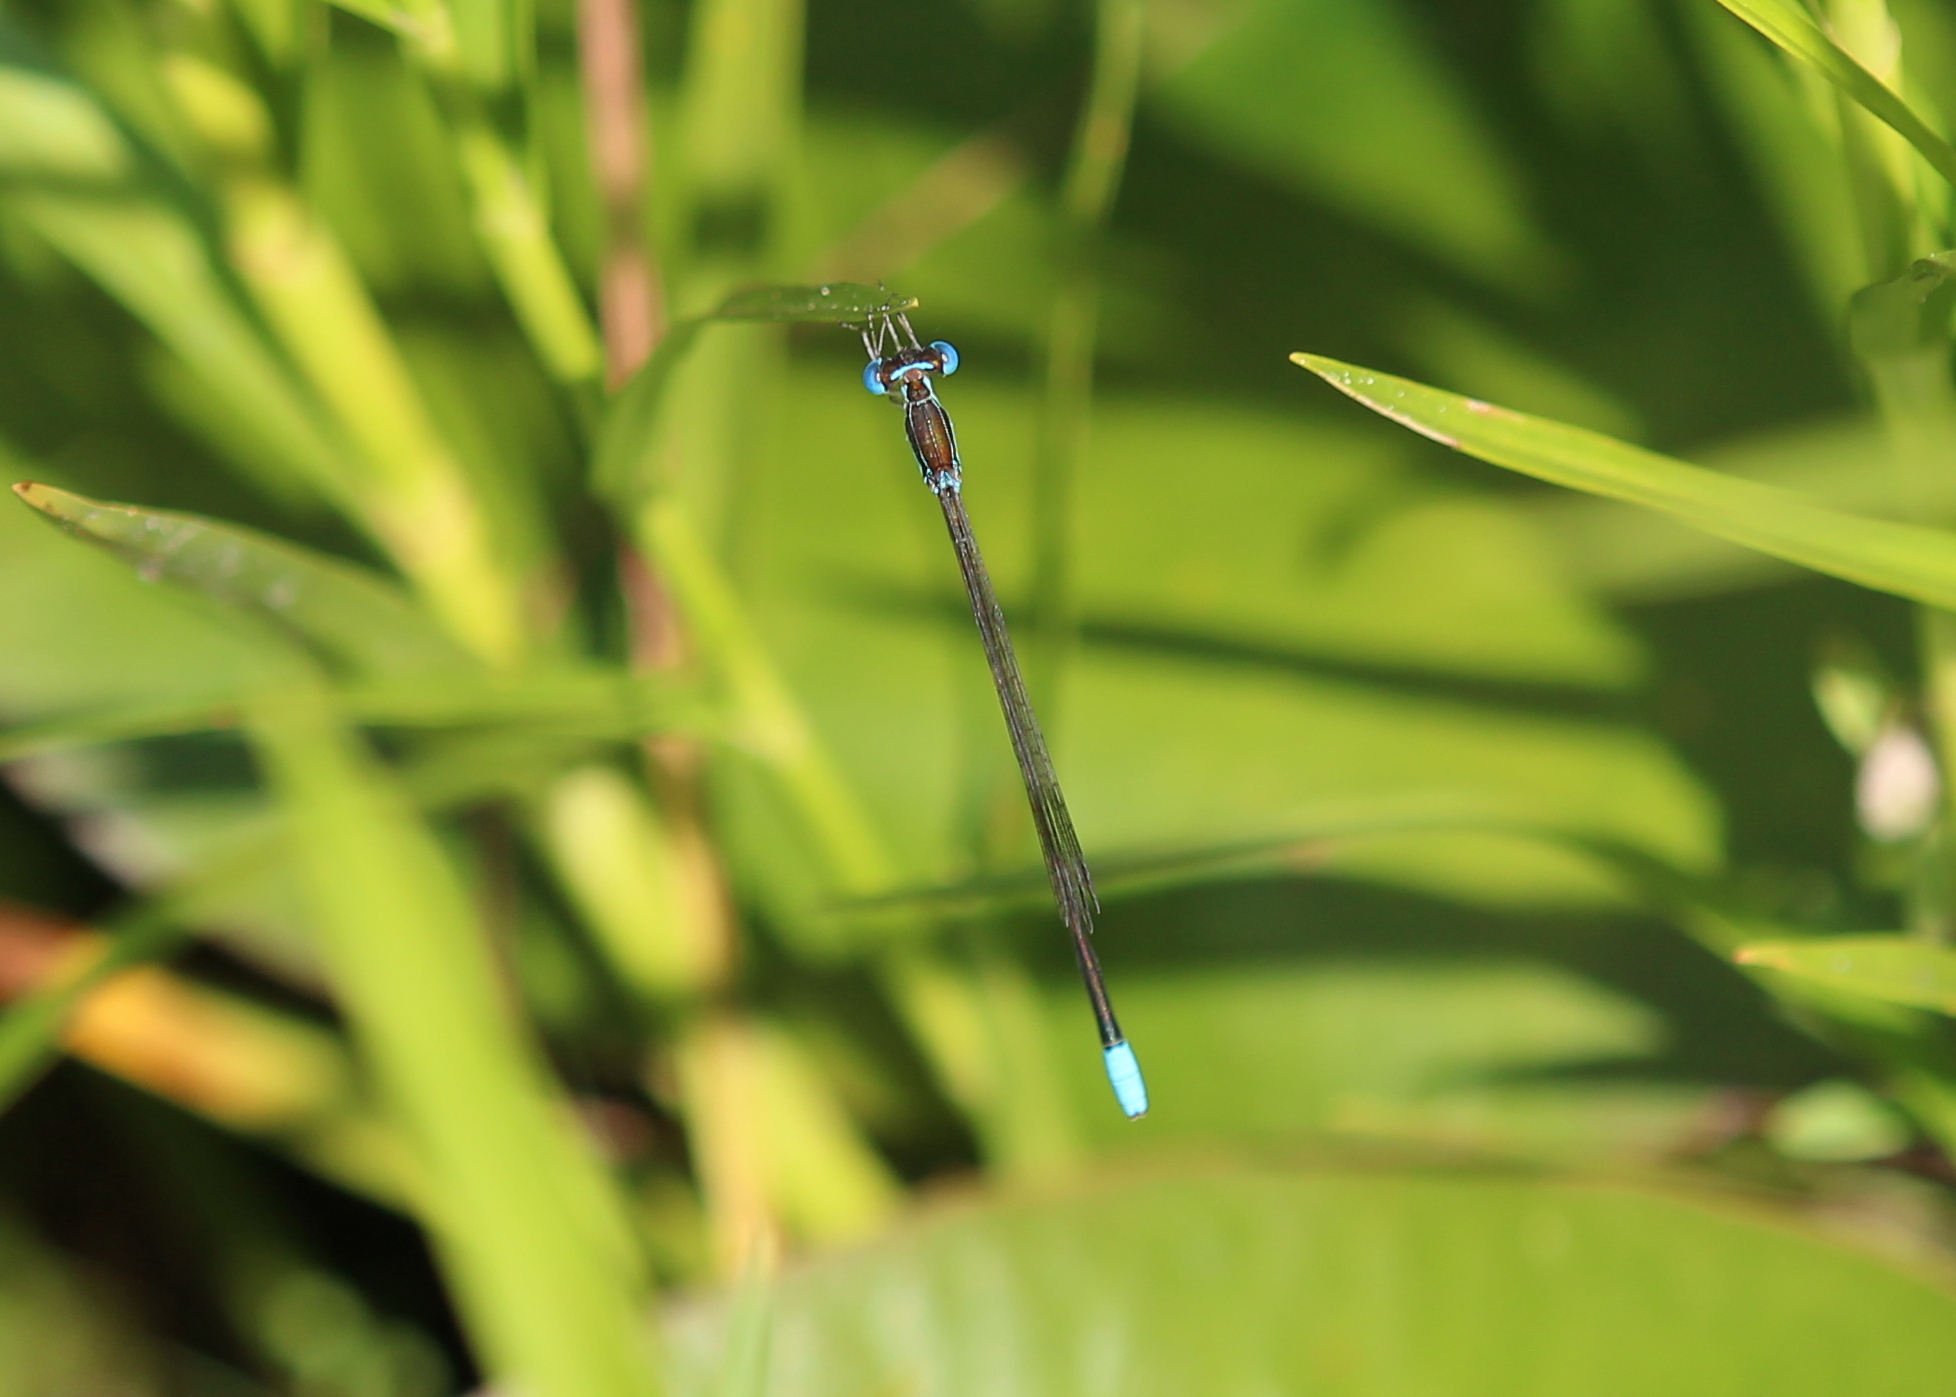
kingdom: Animalia
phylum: Arthropoda
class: Insecta
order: Odonata
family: Coenagrionidae
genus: Nehalennia
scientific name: Nehalennia gracilis
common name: Sphagnum sprite
